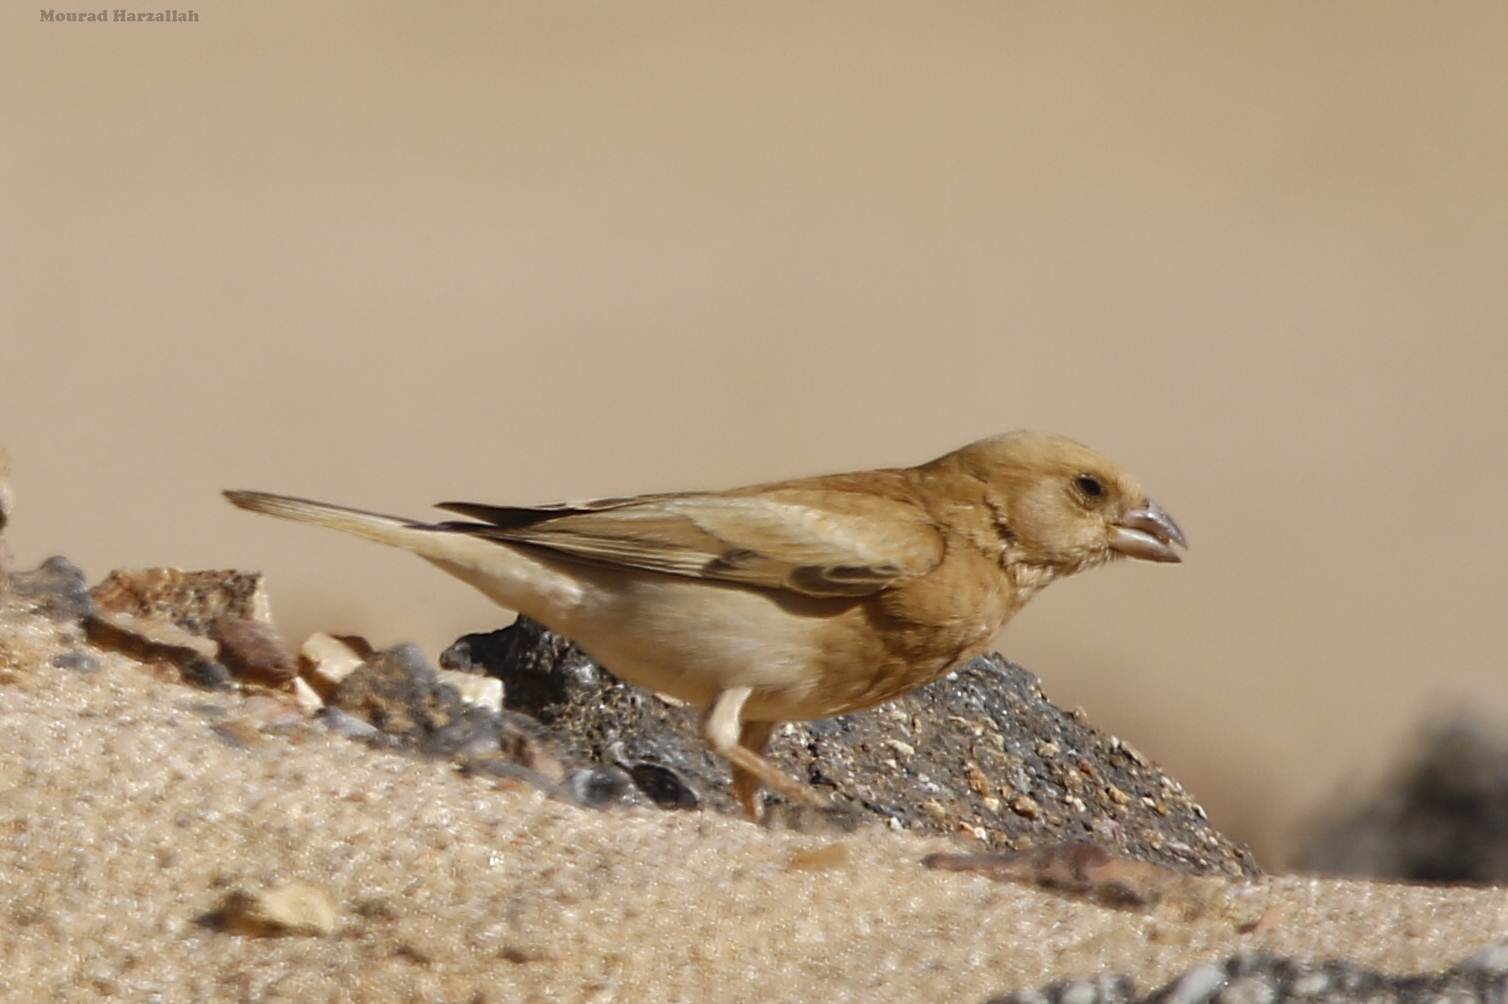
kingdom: Animalia
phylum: Chordata
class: Aves
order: Passeriformes
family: Passeridae
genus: Passer
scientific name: Passer simplex
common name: Desert sparrow
